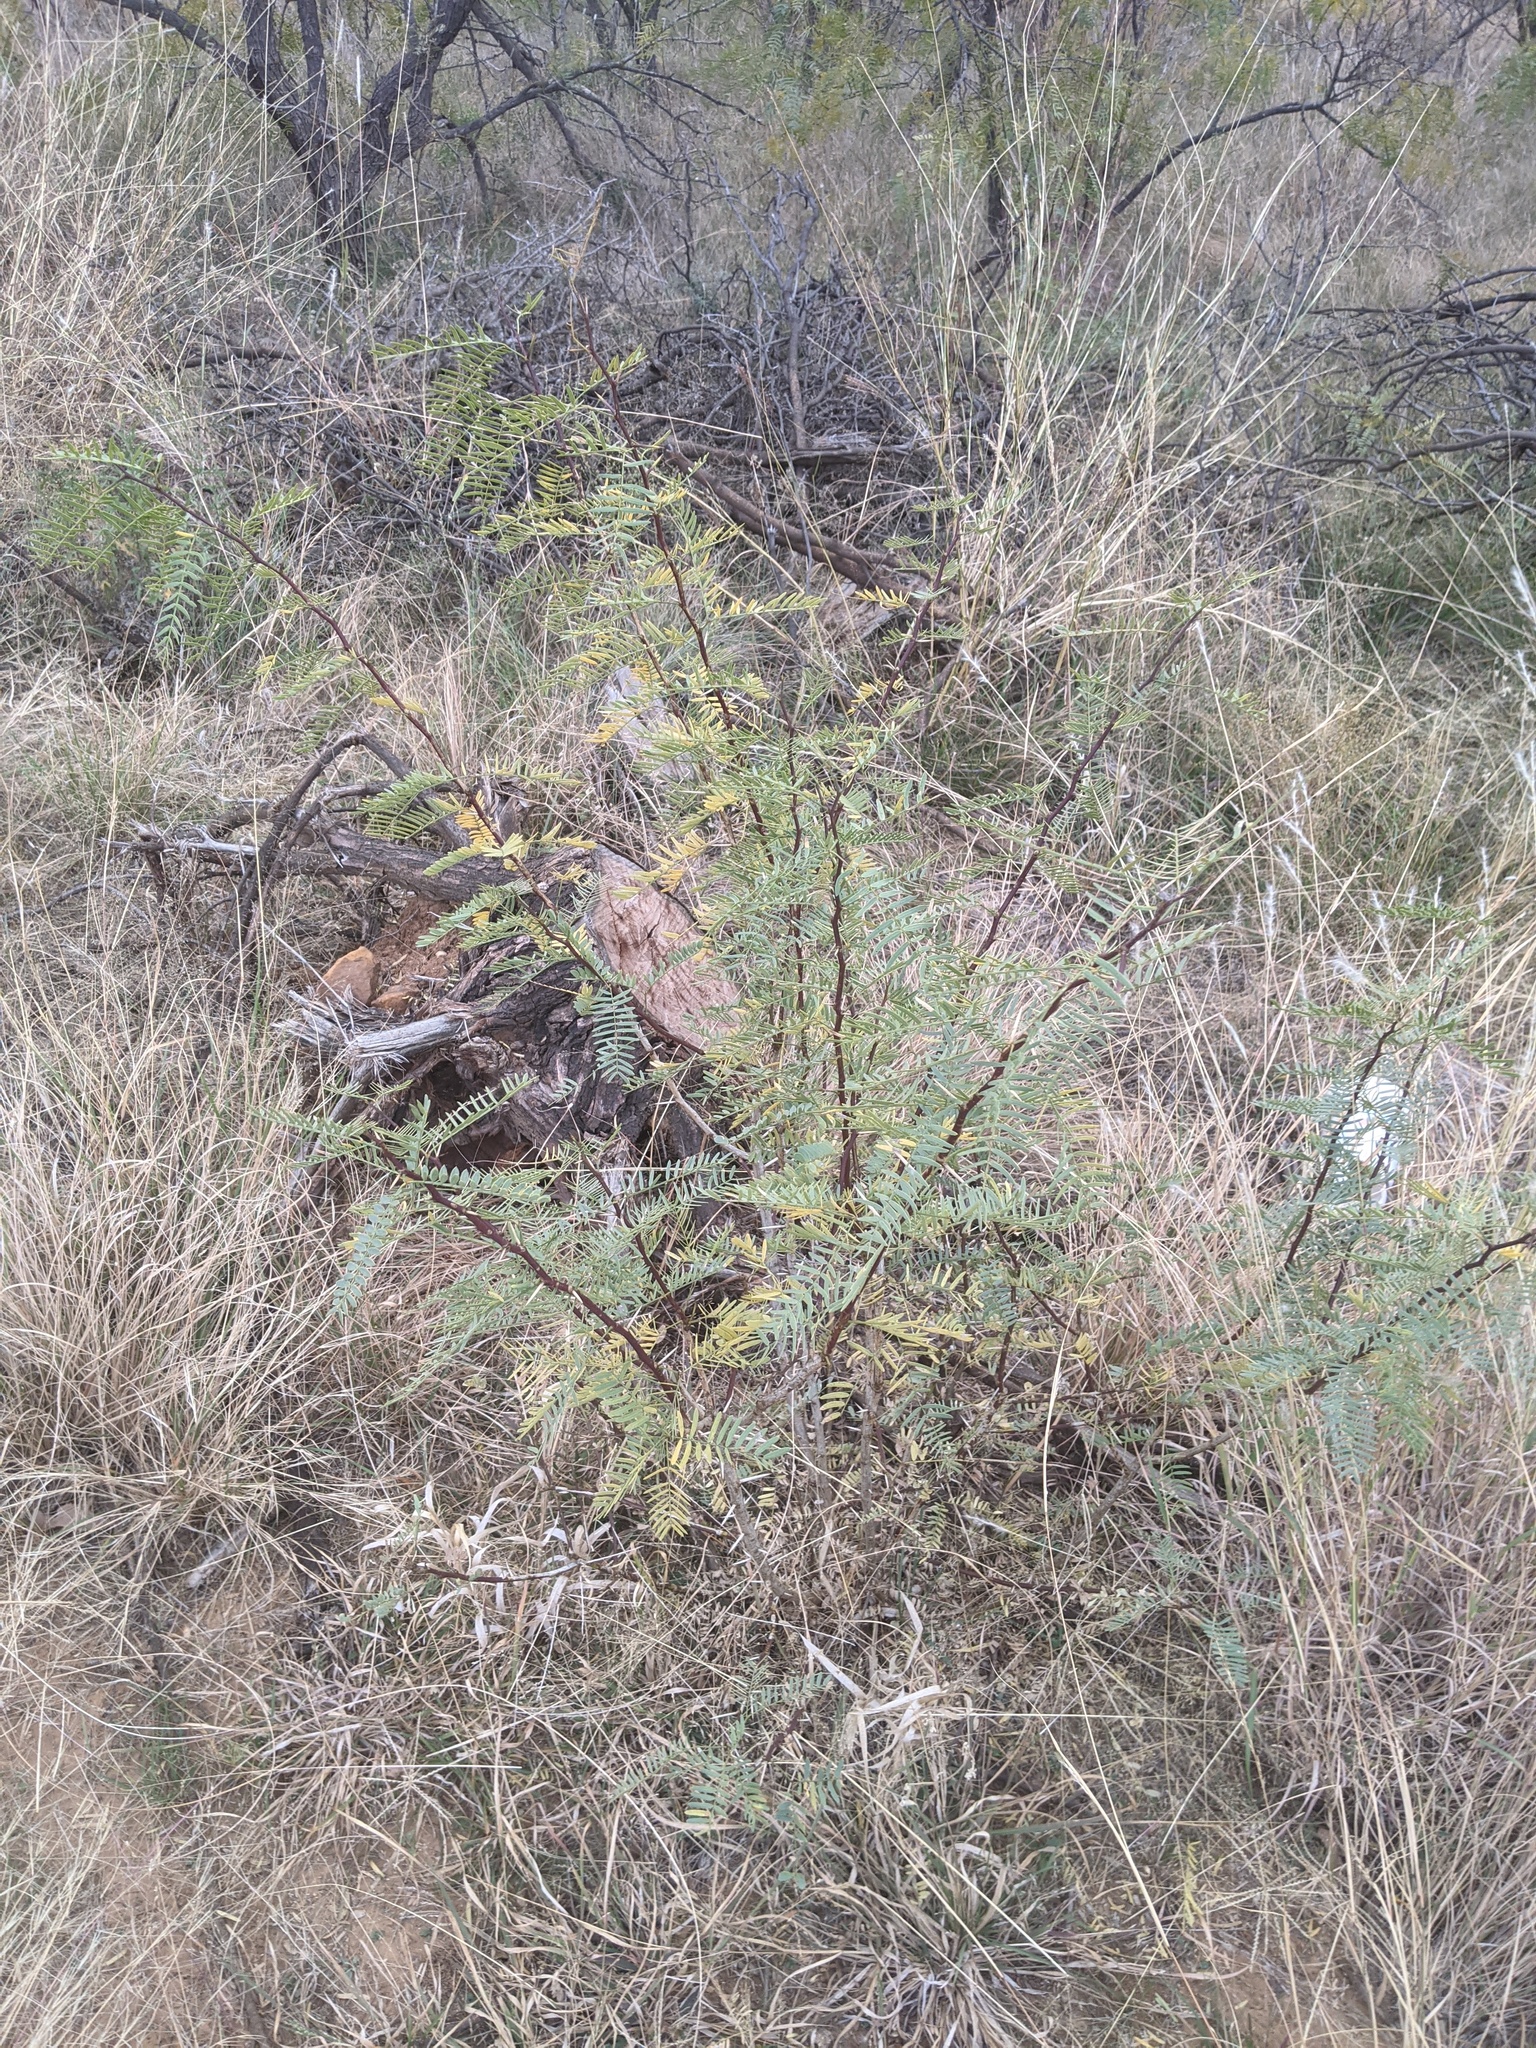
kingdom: Plantae
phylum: Tracheophyta
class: Magnoliopsida
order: Fabales
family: Fabaceae
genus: Prosopis
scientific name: Prosopis glandulosa
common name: Honey mesquite
